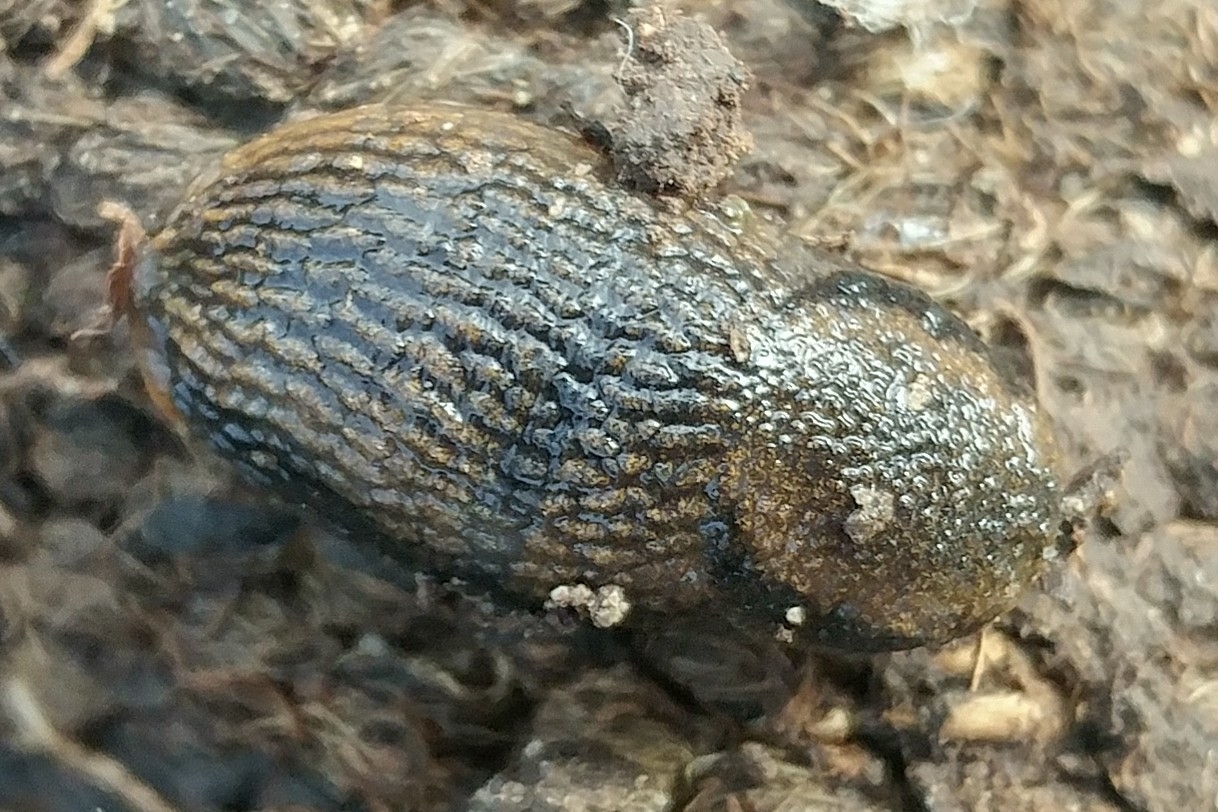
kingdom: Animalia
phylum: Mollusca
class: Gastropoda
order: Stylommatophora
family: Arionidae
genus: Kobeltia
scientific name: Kobeltia
